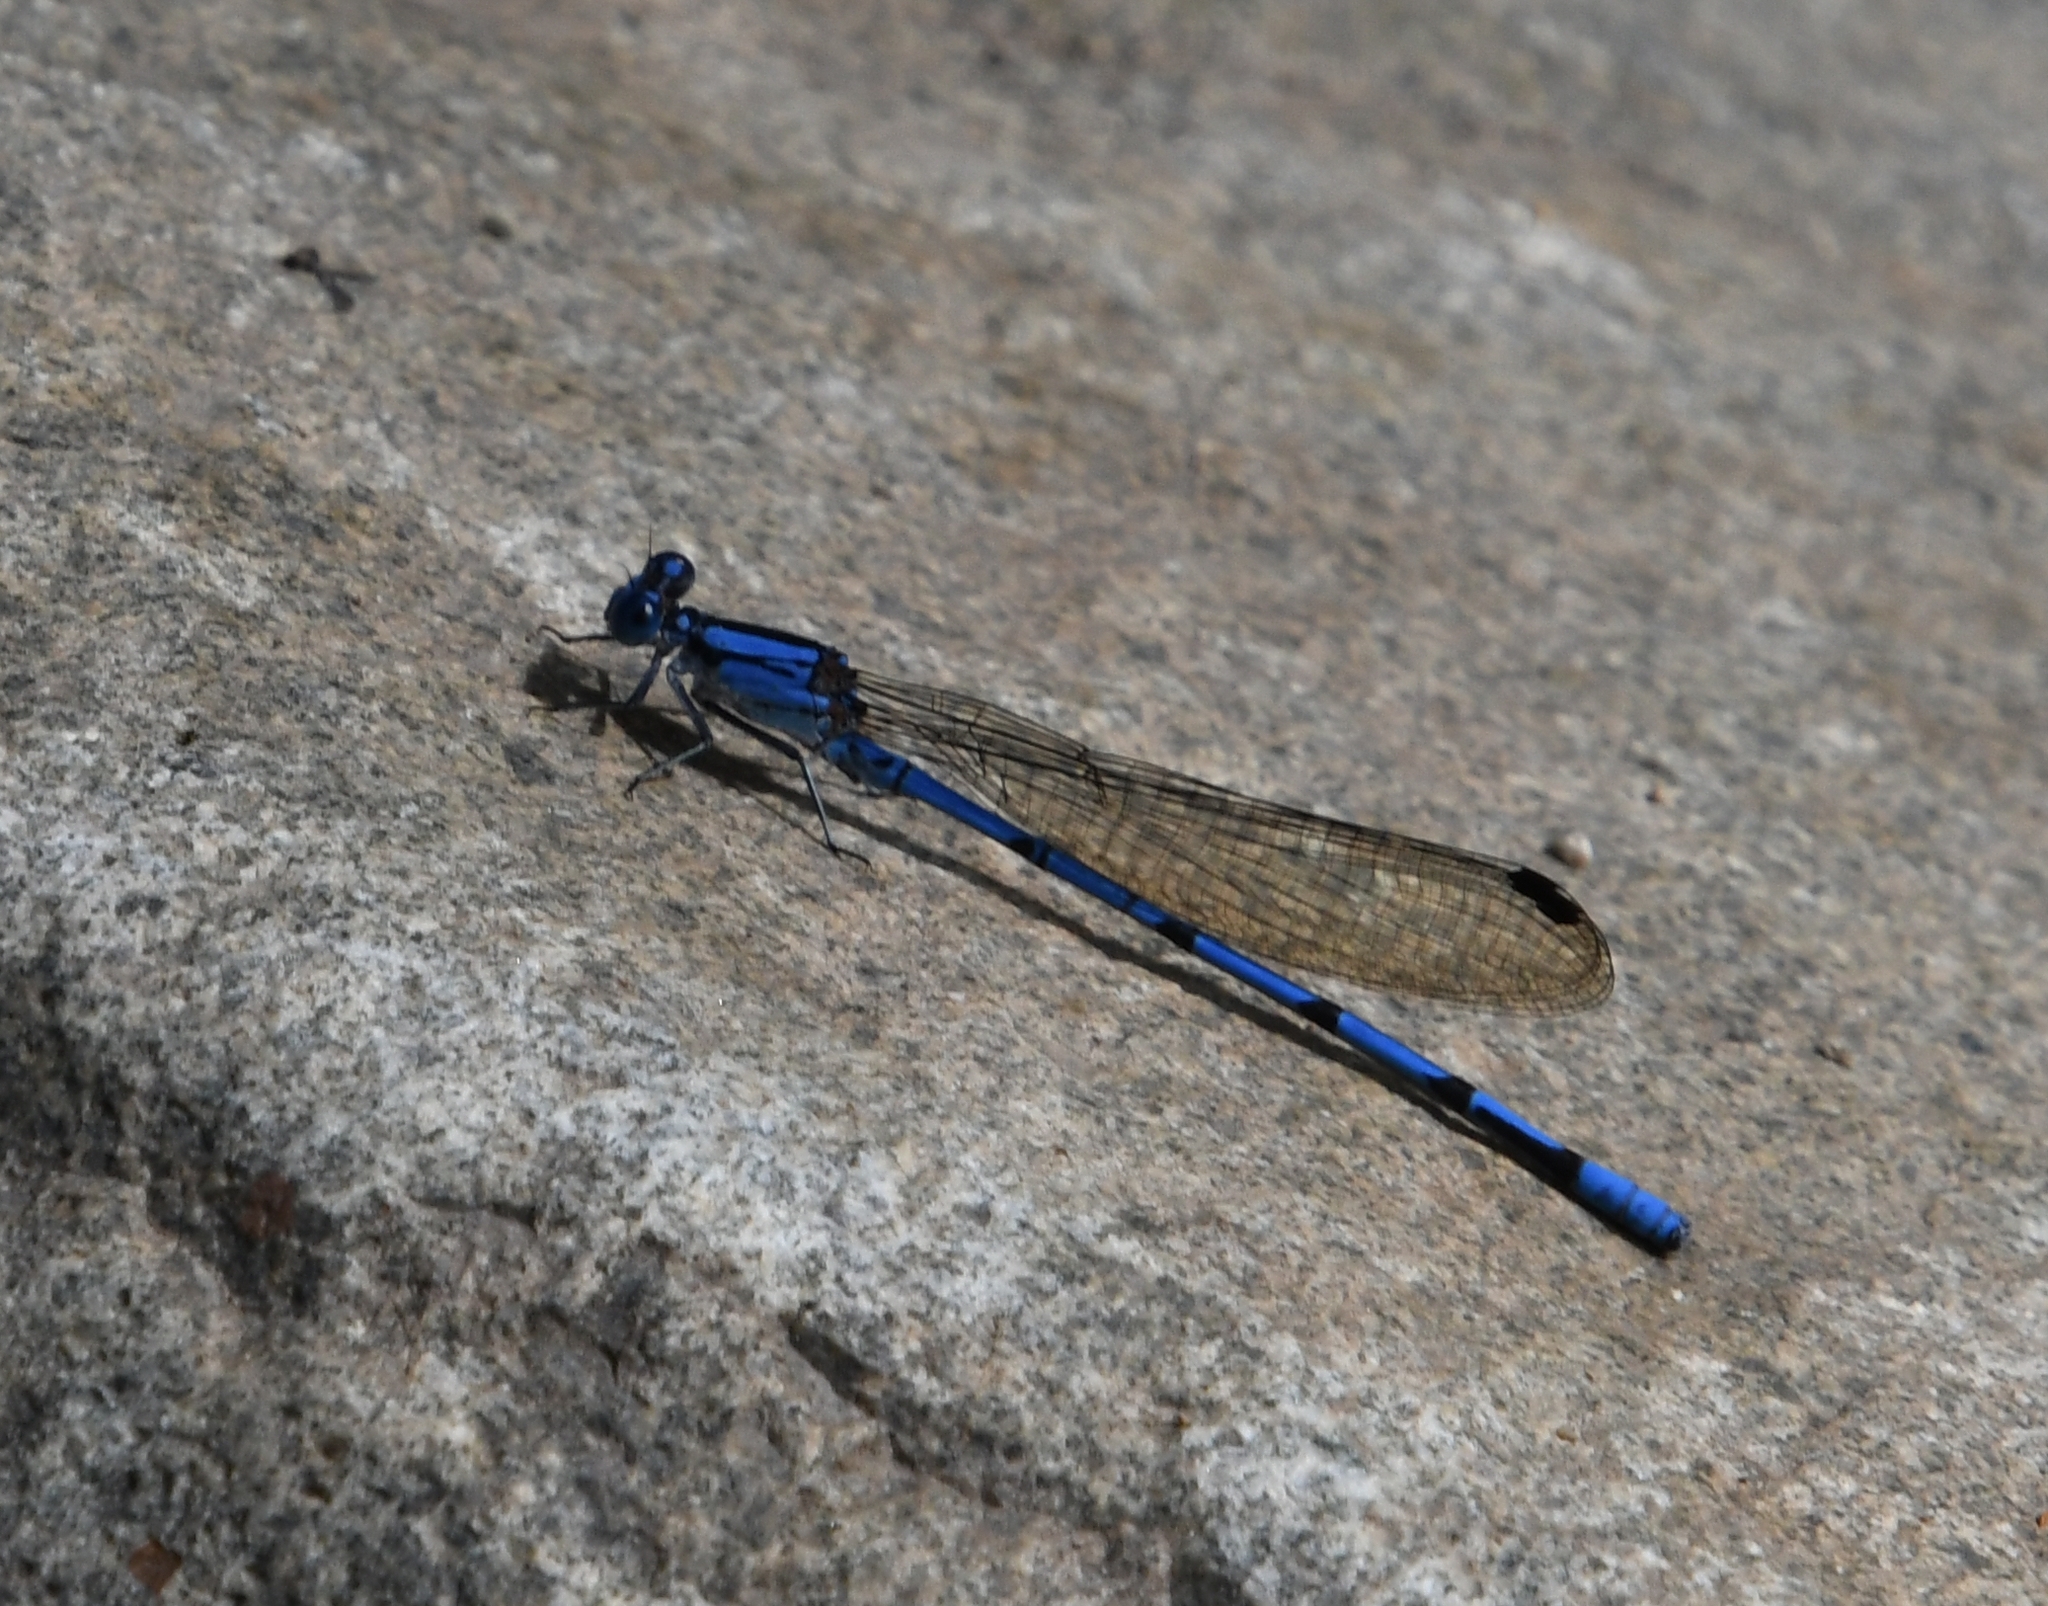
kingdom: Animalia
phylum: Arthropoda
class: Insecta
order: Odonata
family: Coenagrionidae
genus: Argia
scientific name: Argia lacrimans
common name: Sierra madre dancer
